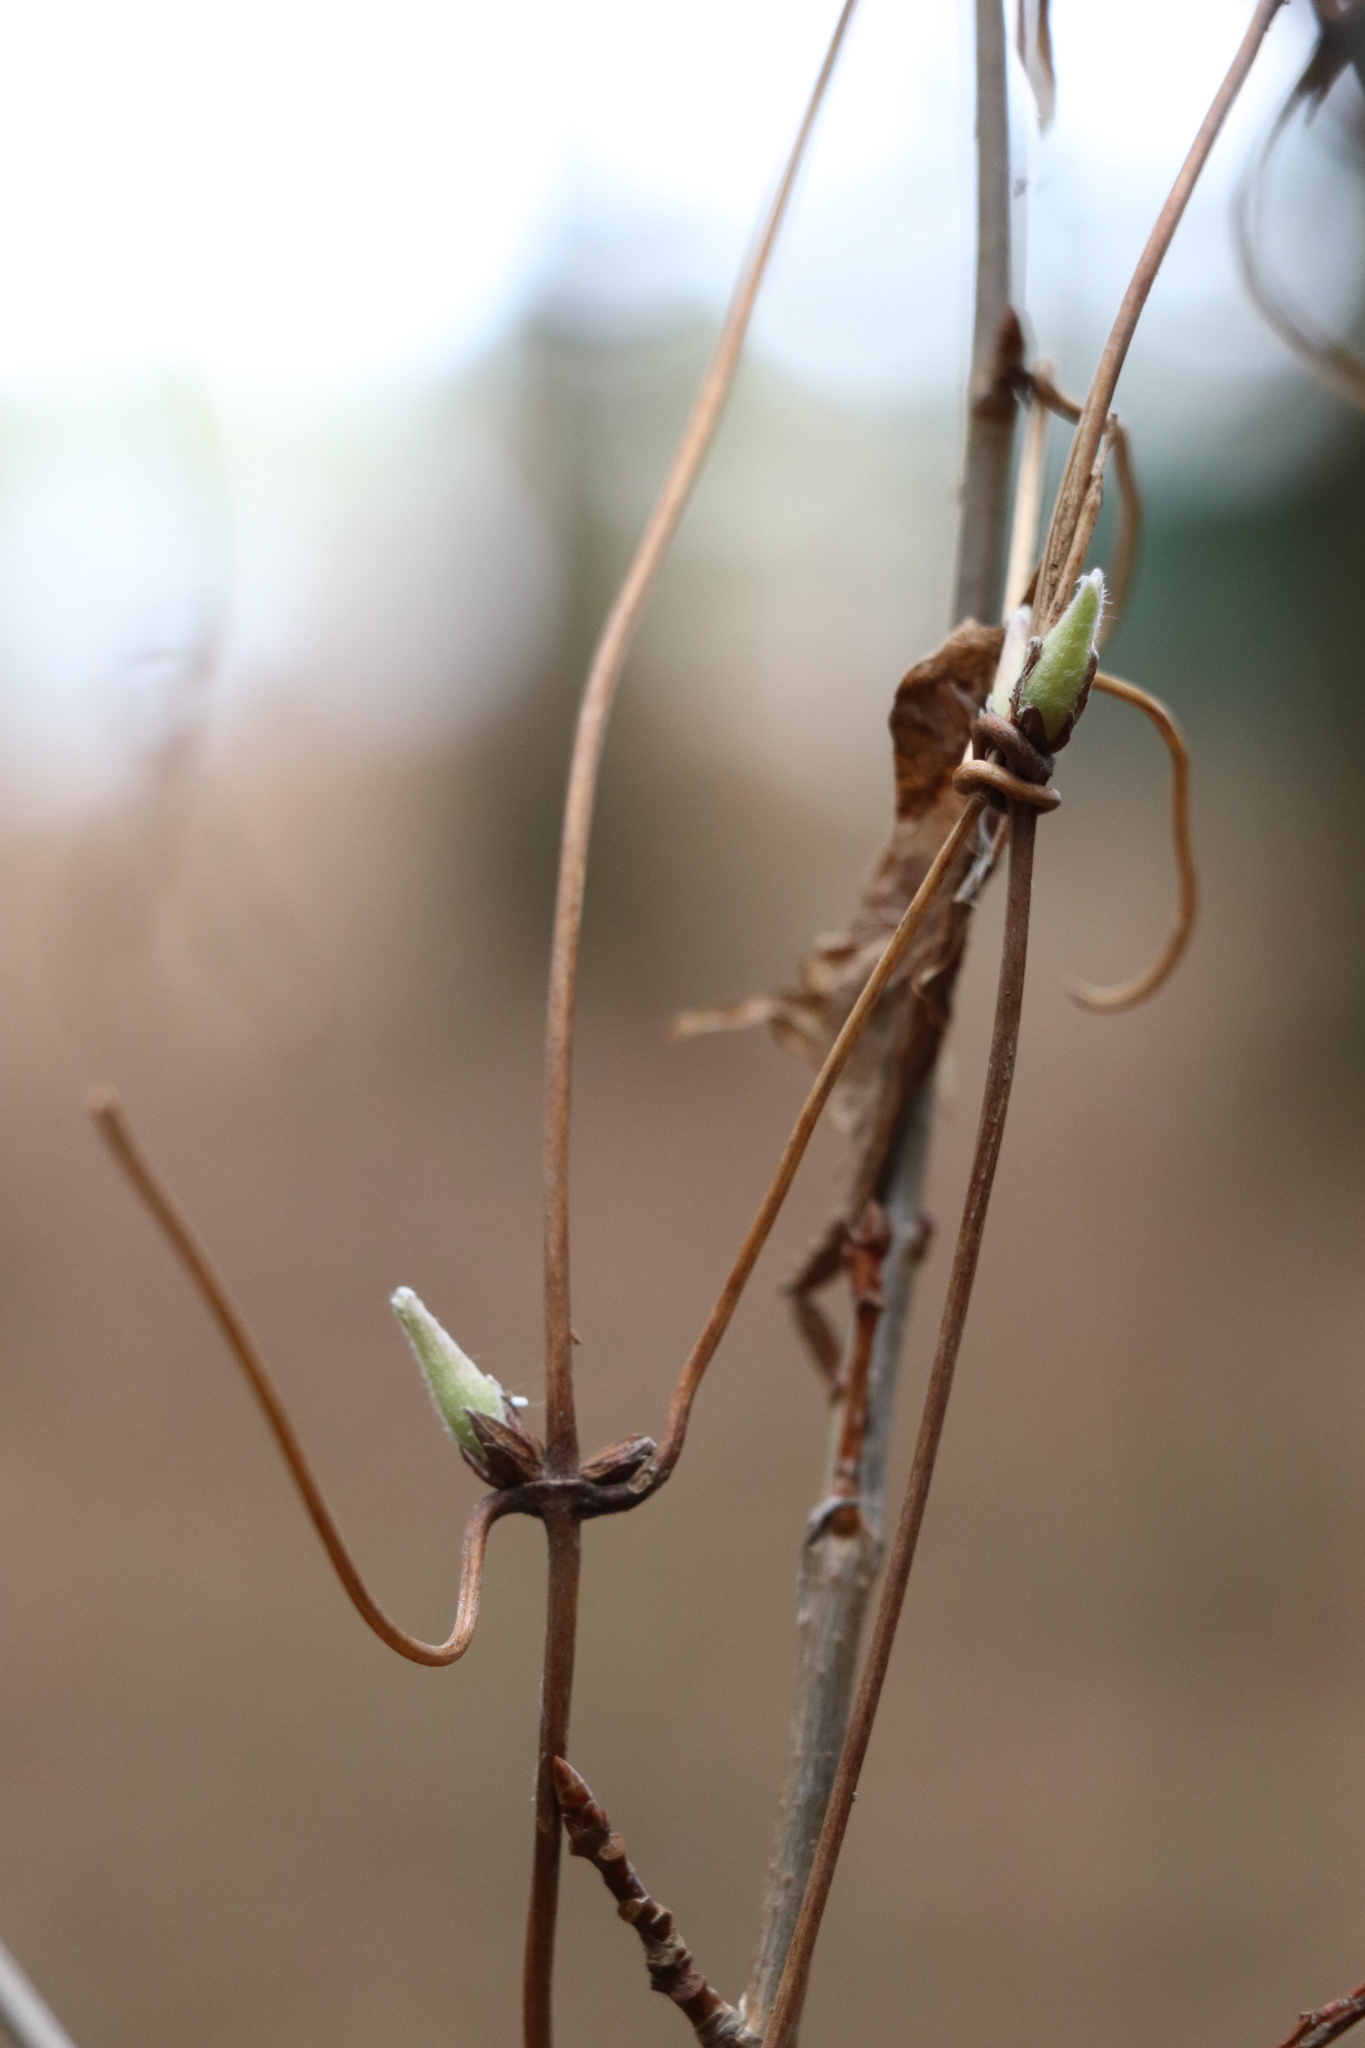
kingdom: Plantae
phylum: Tracheophyta
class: Magnoliopsida
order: Ranunculales
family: Ranunculaceae
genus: Clematis
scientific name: Clematis sibirica
